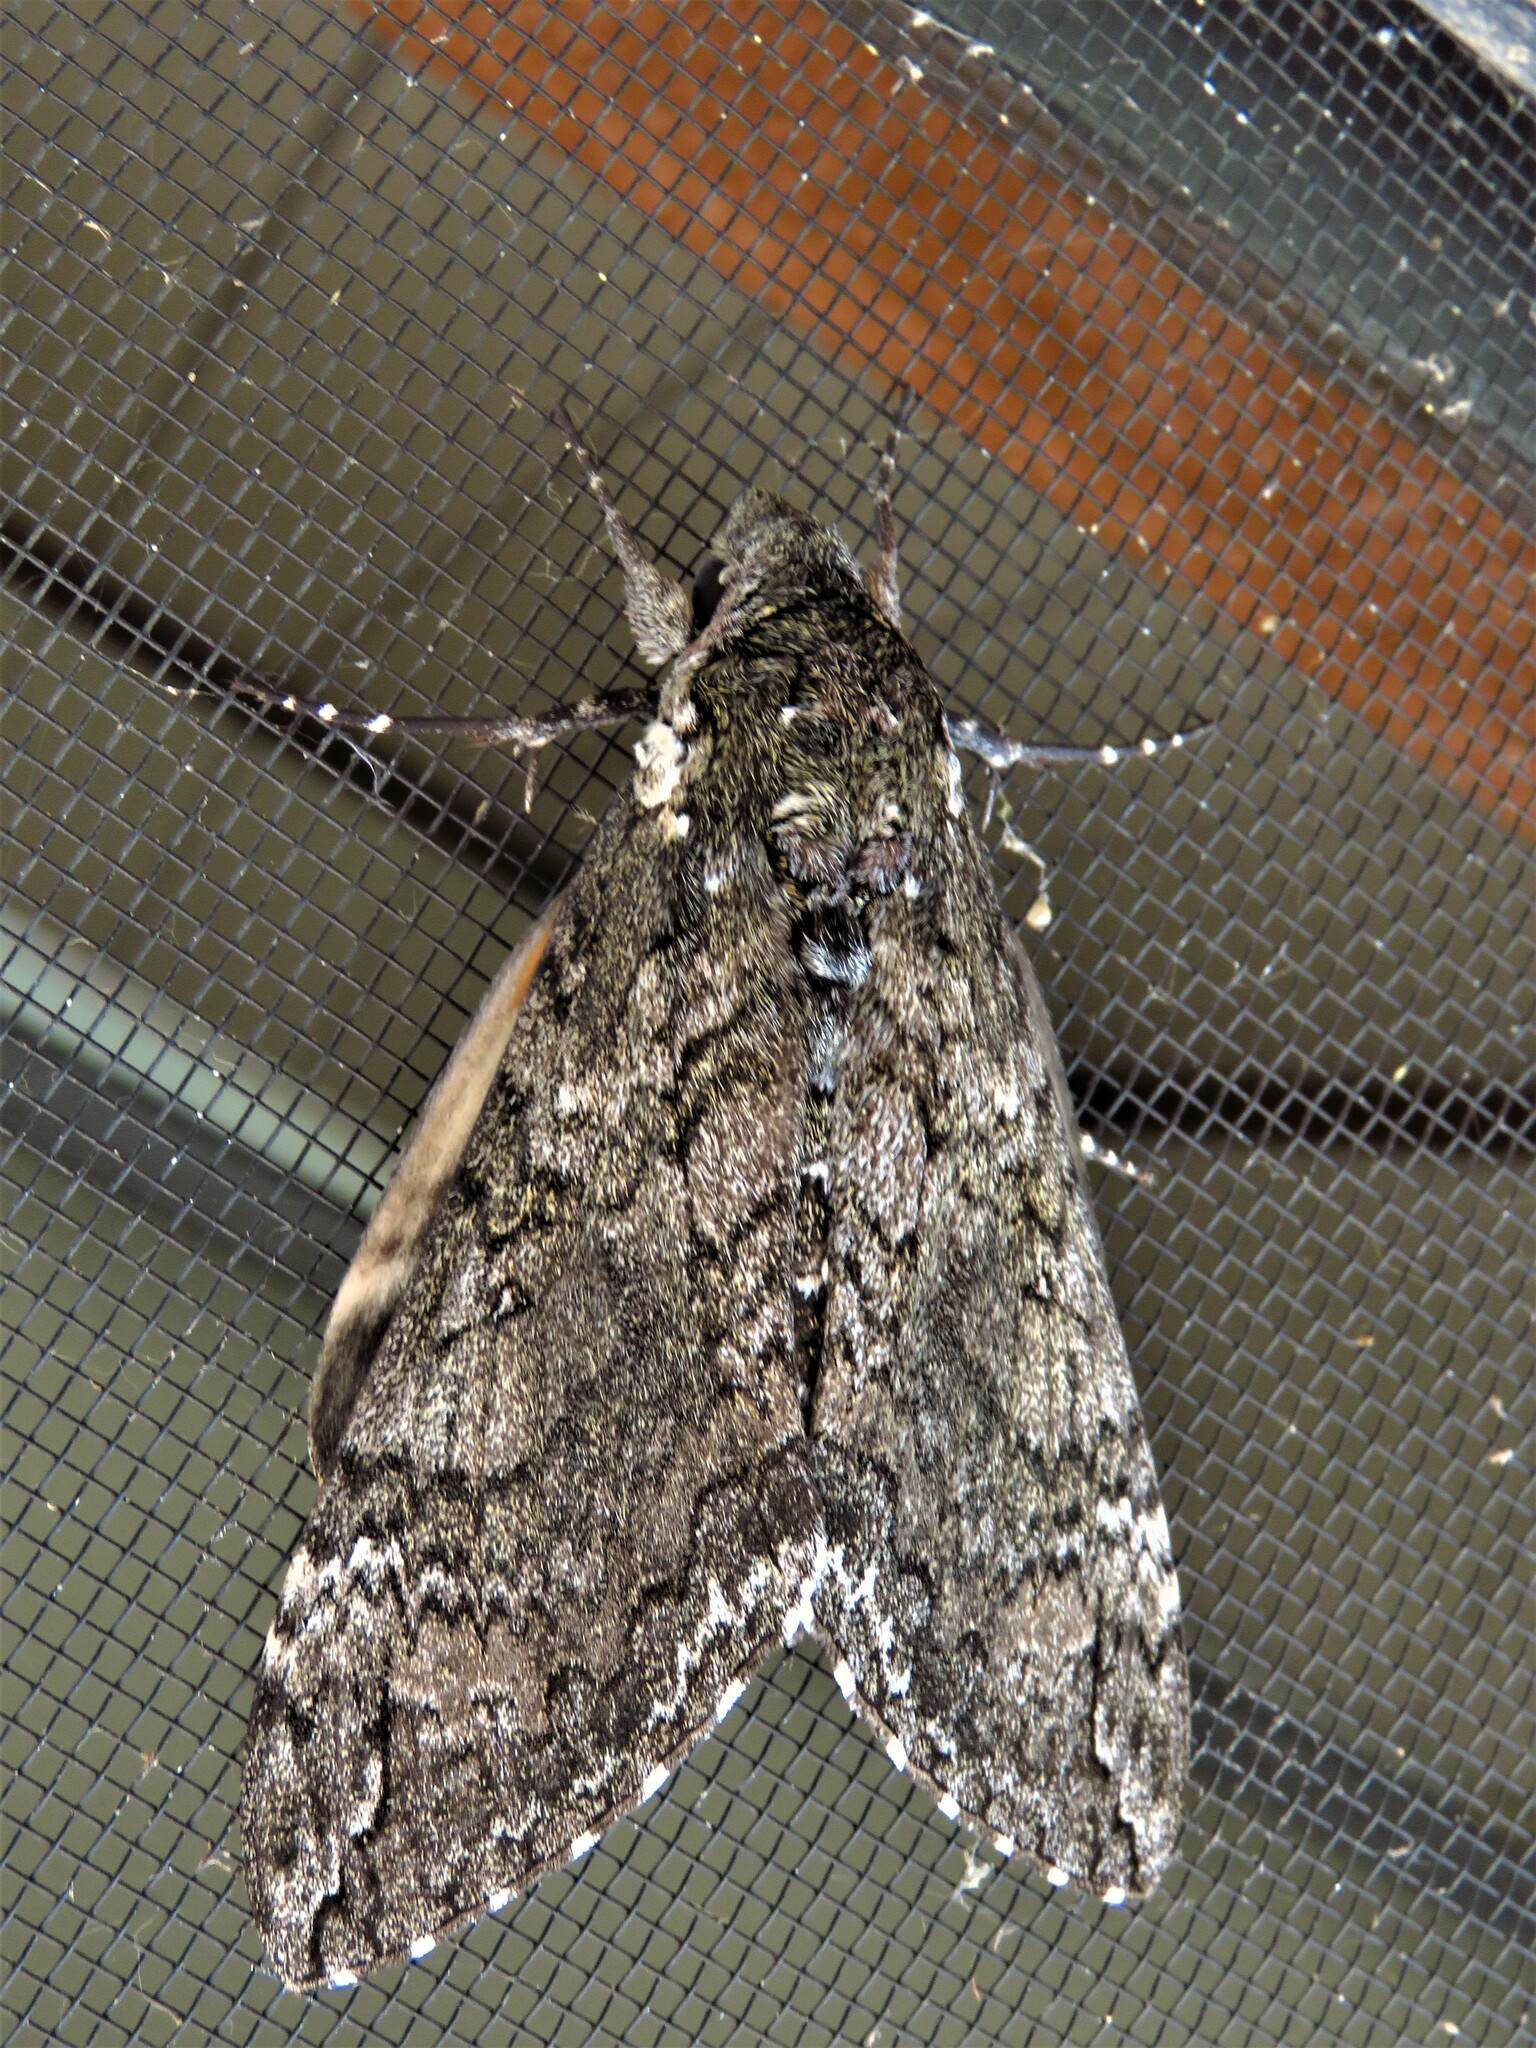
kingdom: Animalia
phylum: Arthropoda
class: Insecta
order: Lepidoptera
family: Sphingidae
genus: Manduca
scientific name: Manduca sexta
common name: Carolina sphinx
